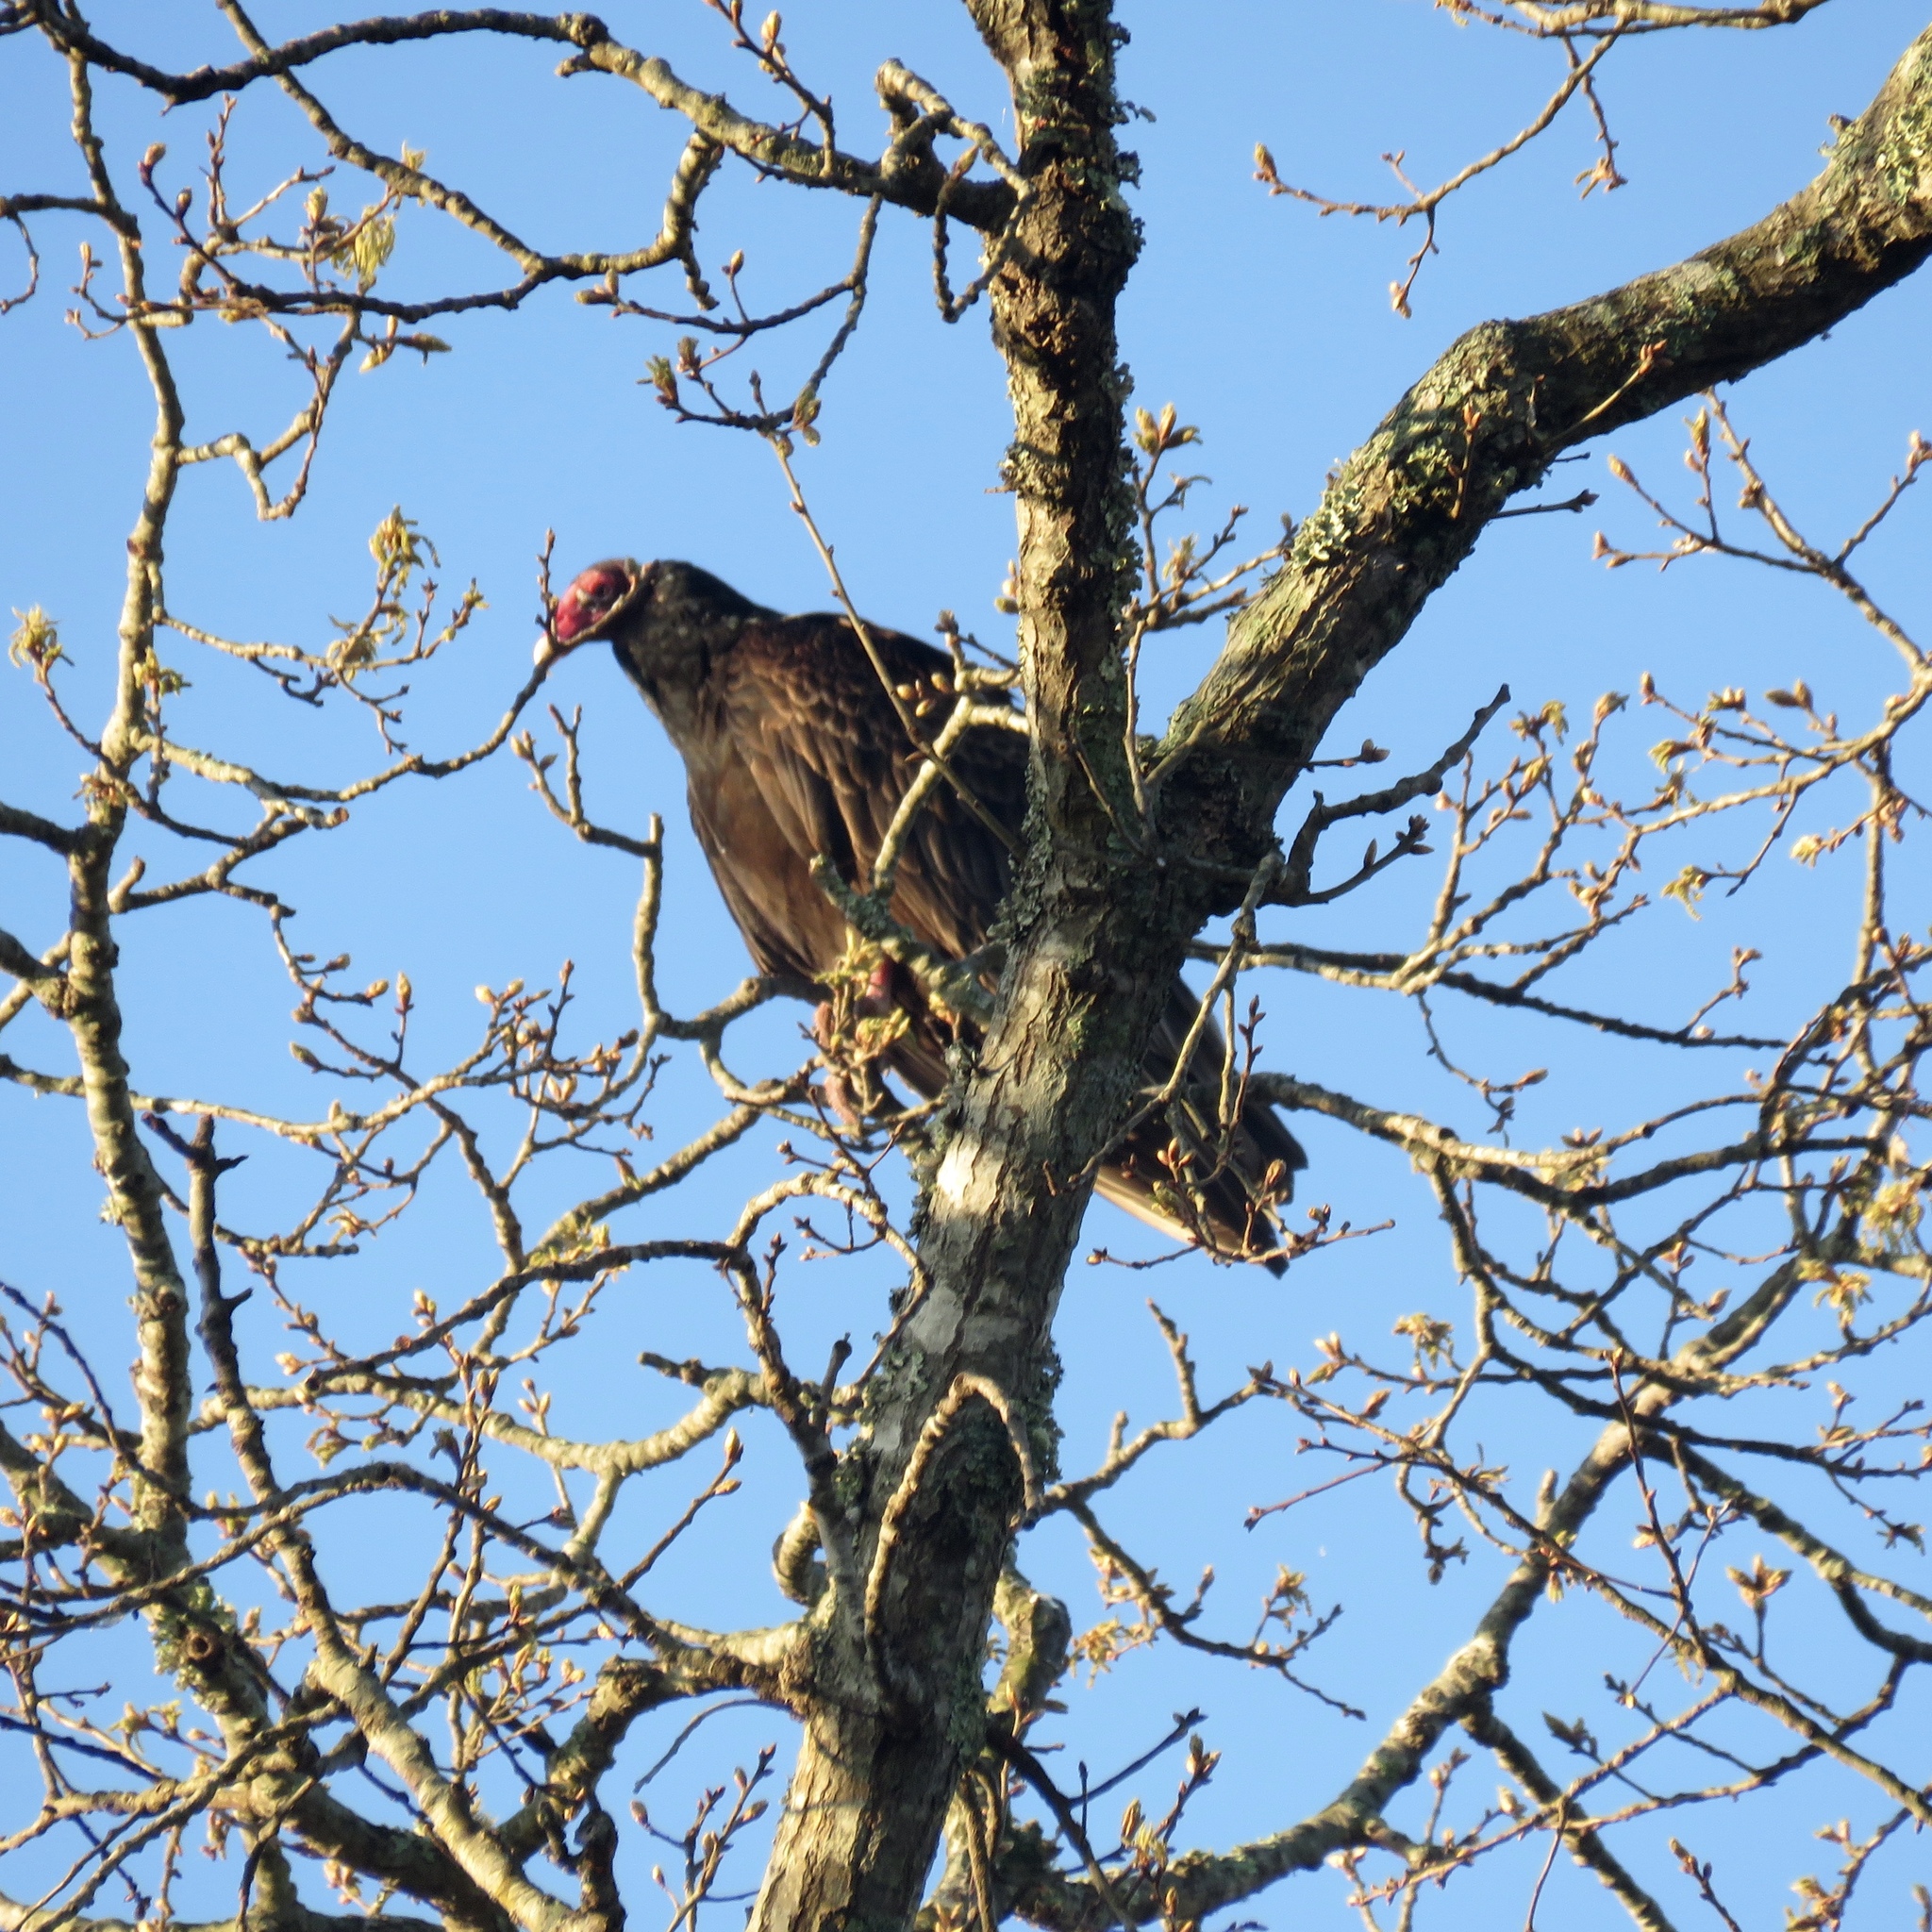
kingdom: Animalia
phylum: Chordata
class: Aves
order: Accipitriformes
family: Cathartidae
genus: Cathartes
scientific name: Cathartes aura
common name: Turkey vulture
